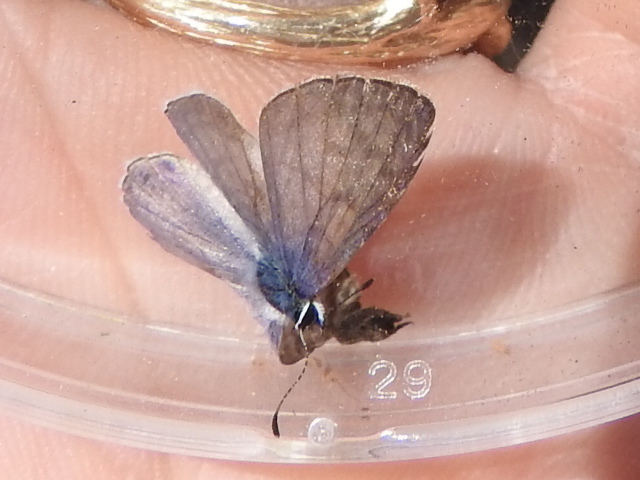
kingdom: Animalia
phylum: Arthropoda
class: Insecta
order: Lepidoptera
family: Lycaenidae
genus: Leptotes
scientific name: Leptotes cassius
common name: Cassius blue
